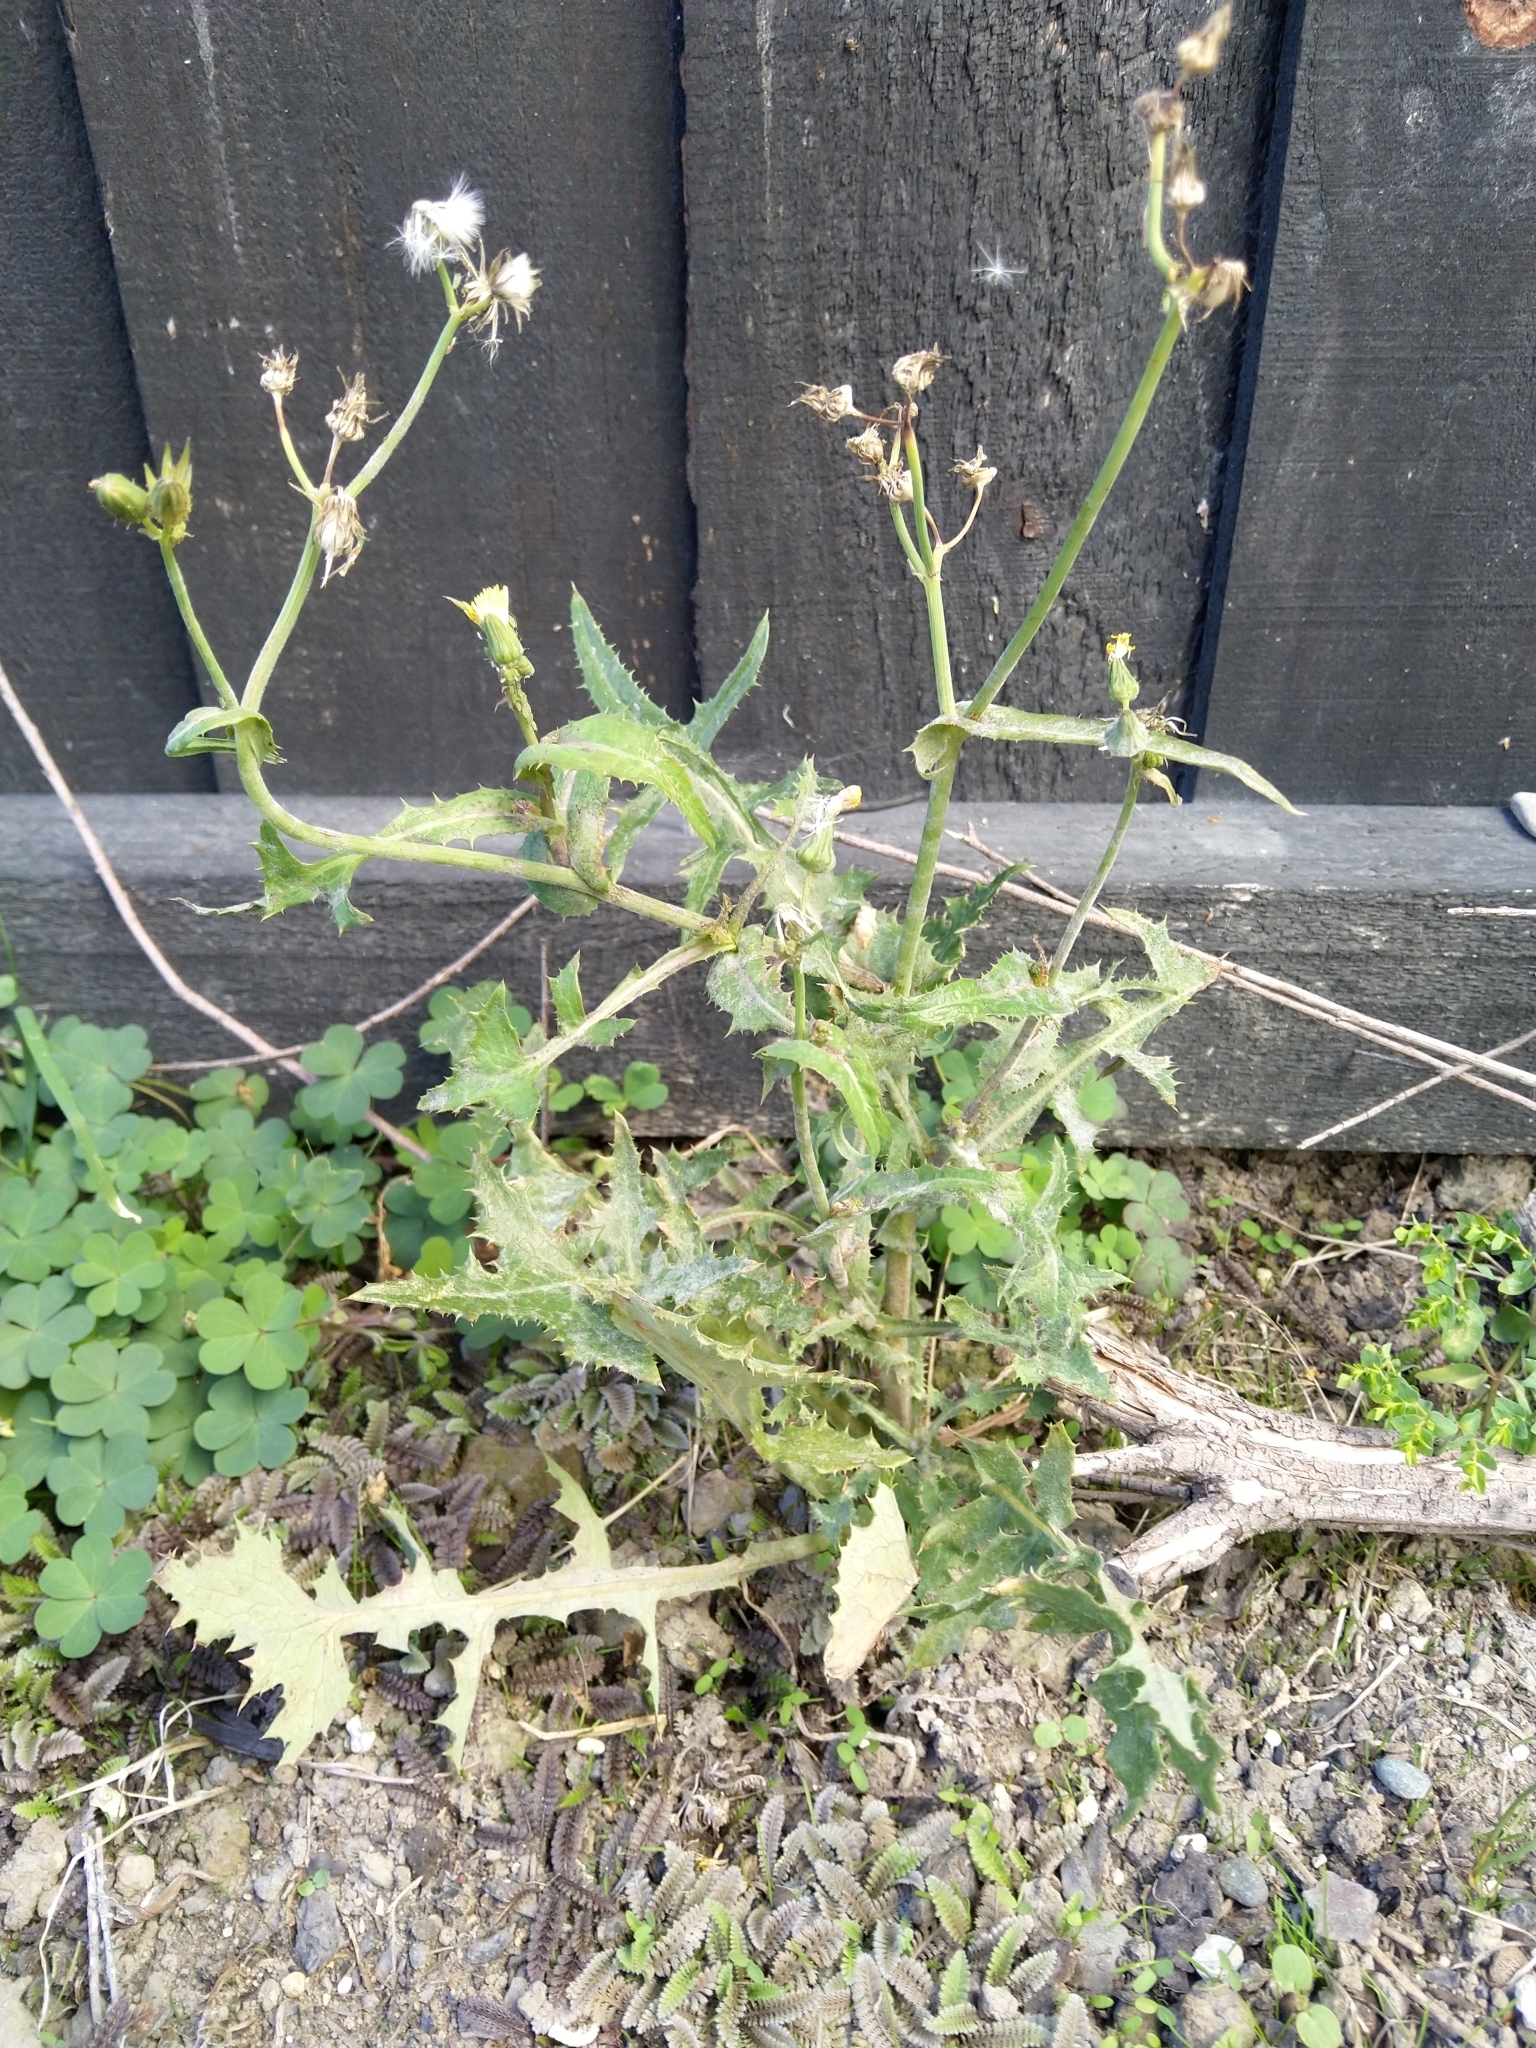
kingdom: Plantae
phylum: Tracheophyta
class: Magnoliopsida
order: Asterales
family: Asteraceae
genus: Sonchus
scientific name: Sonchus asper
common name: Prickly sow-thistle
